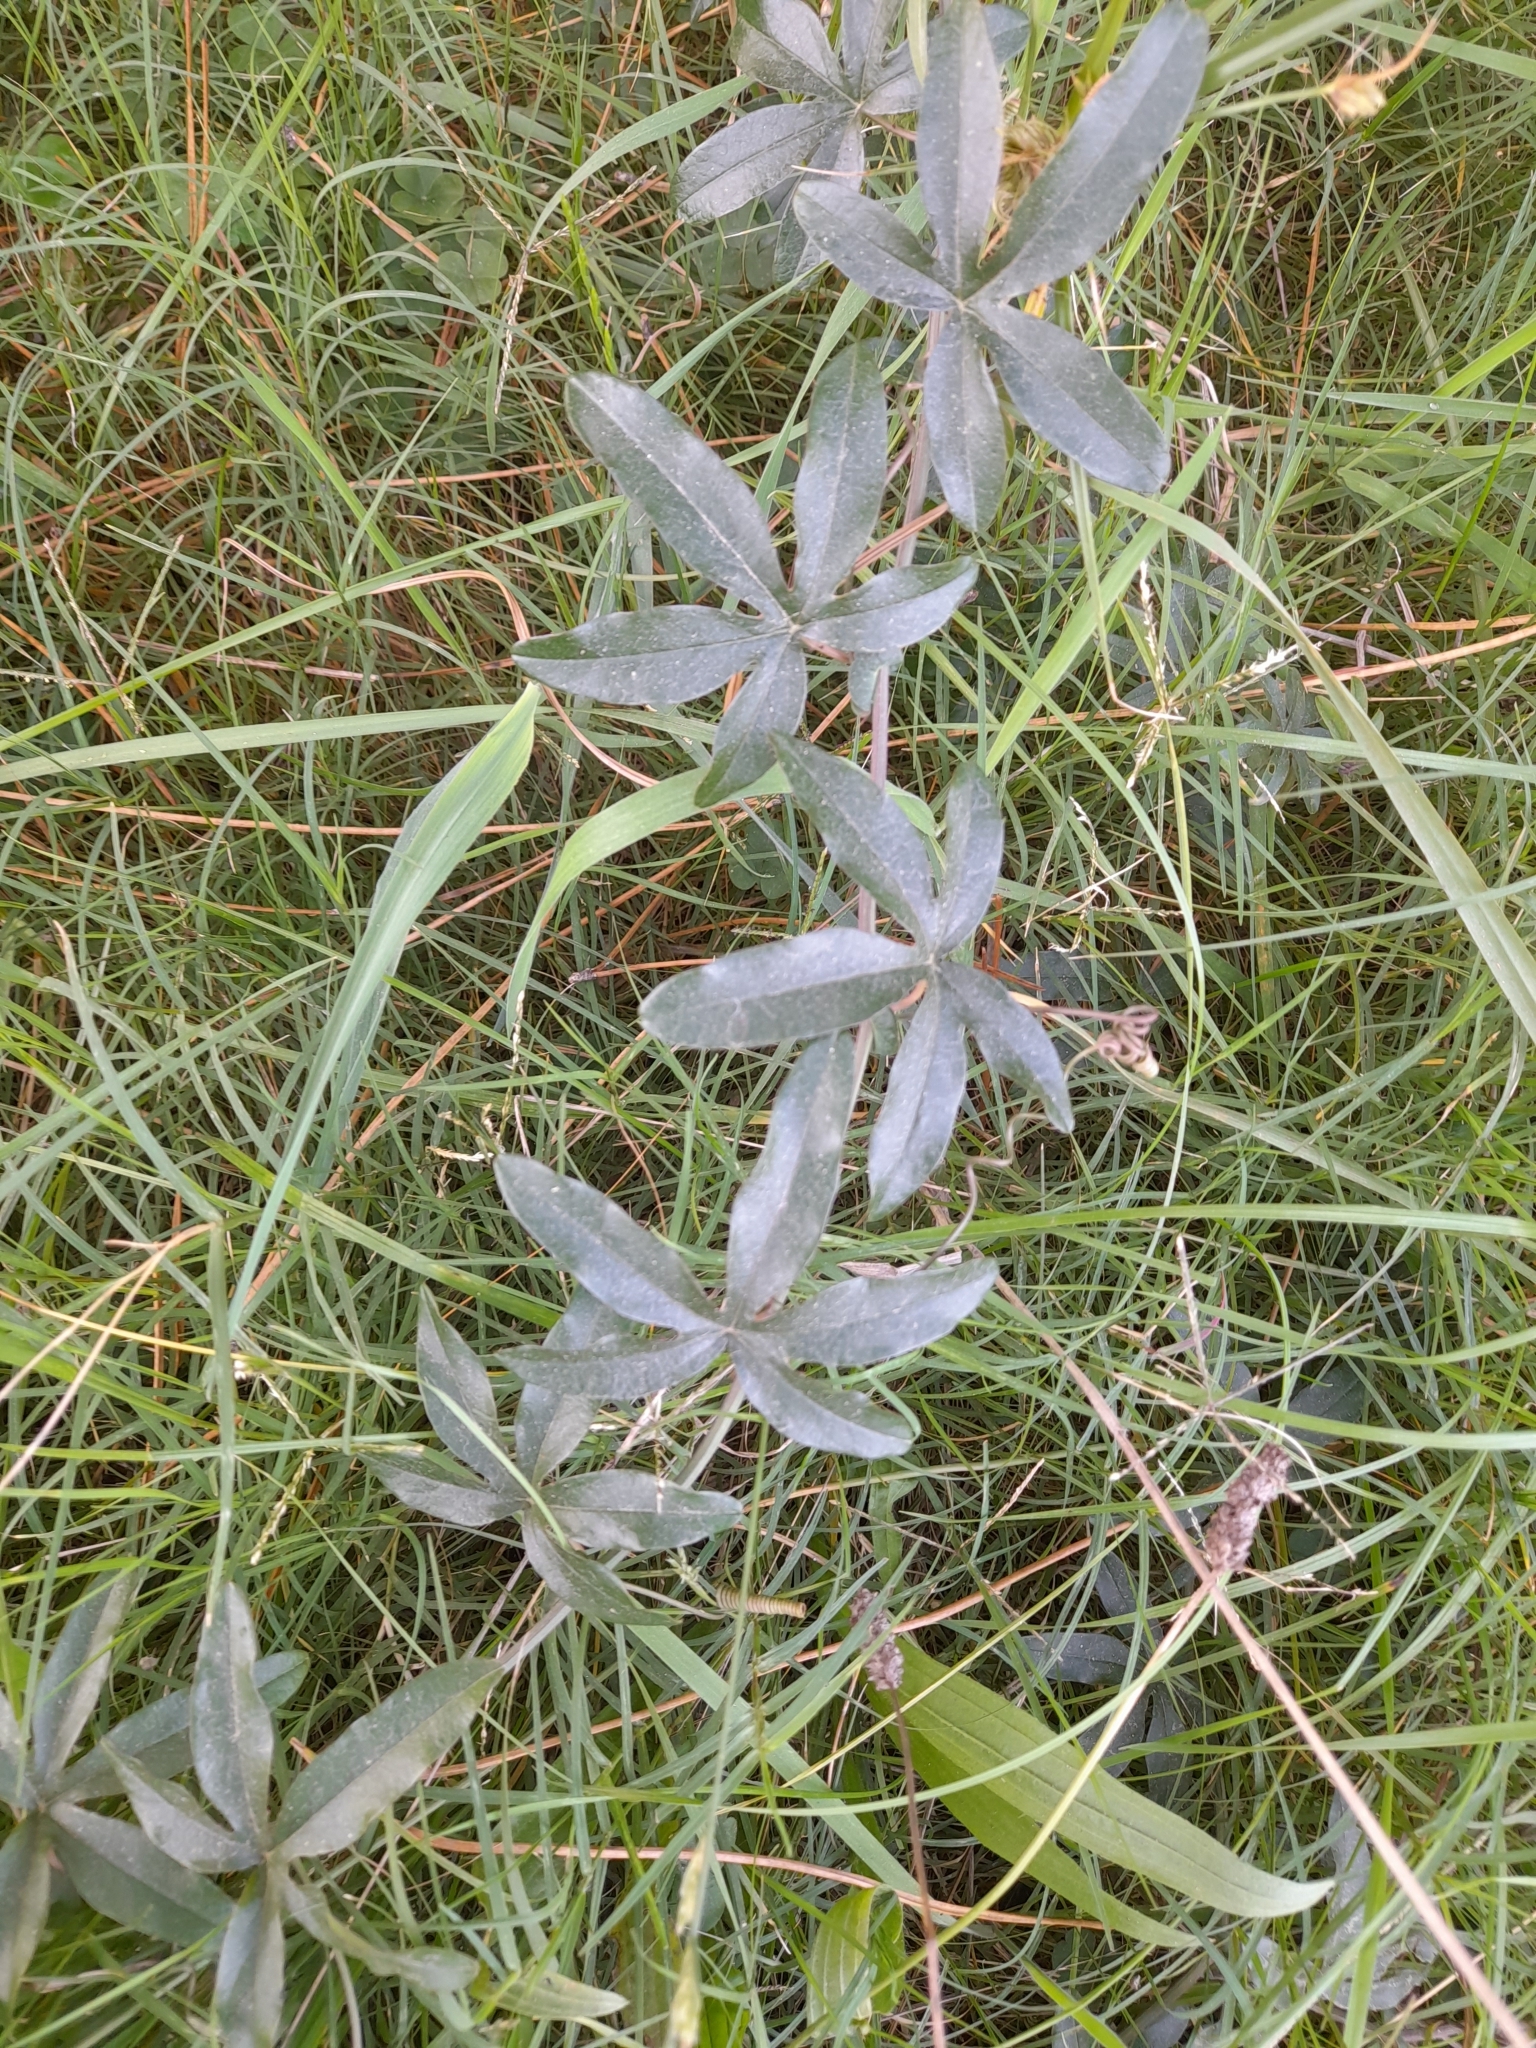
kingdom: Plantae
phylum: Tracheophyta
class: Magnoliopsida
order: Malpighiales
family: Passifloraceae
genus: Passiflora
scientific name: Passiflora caerulea
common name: Blue passionflower
